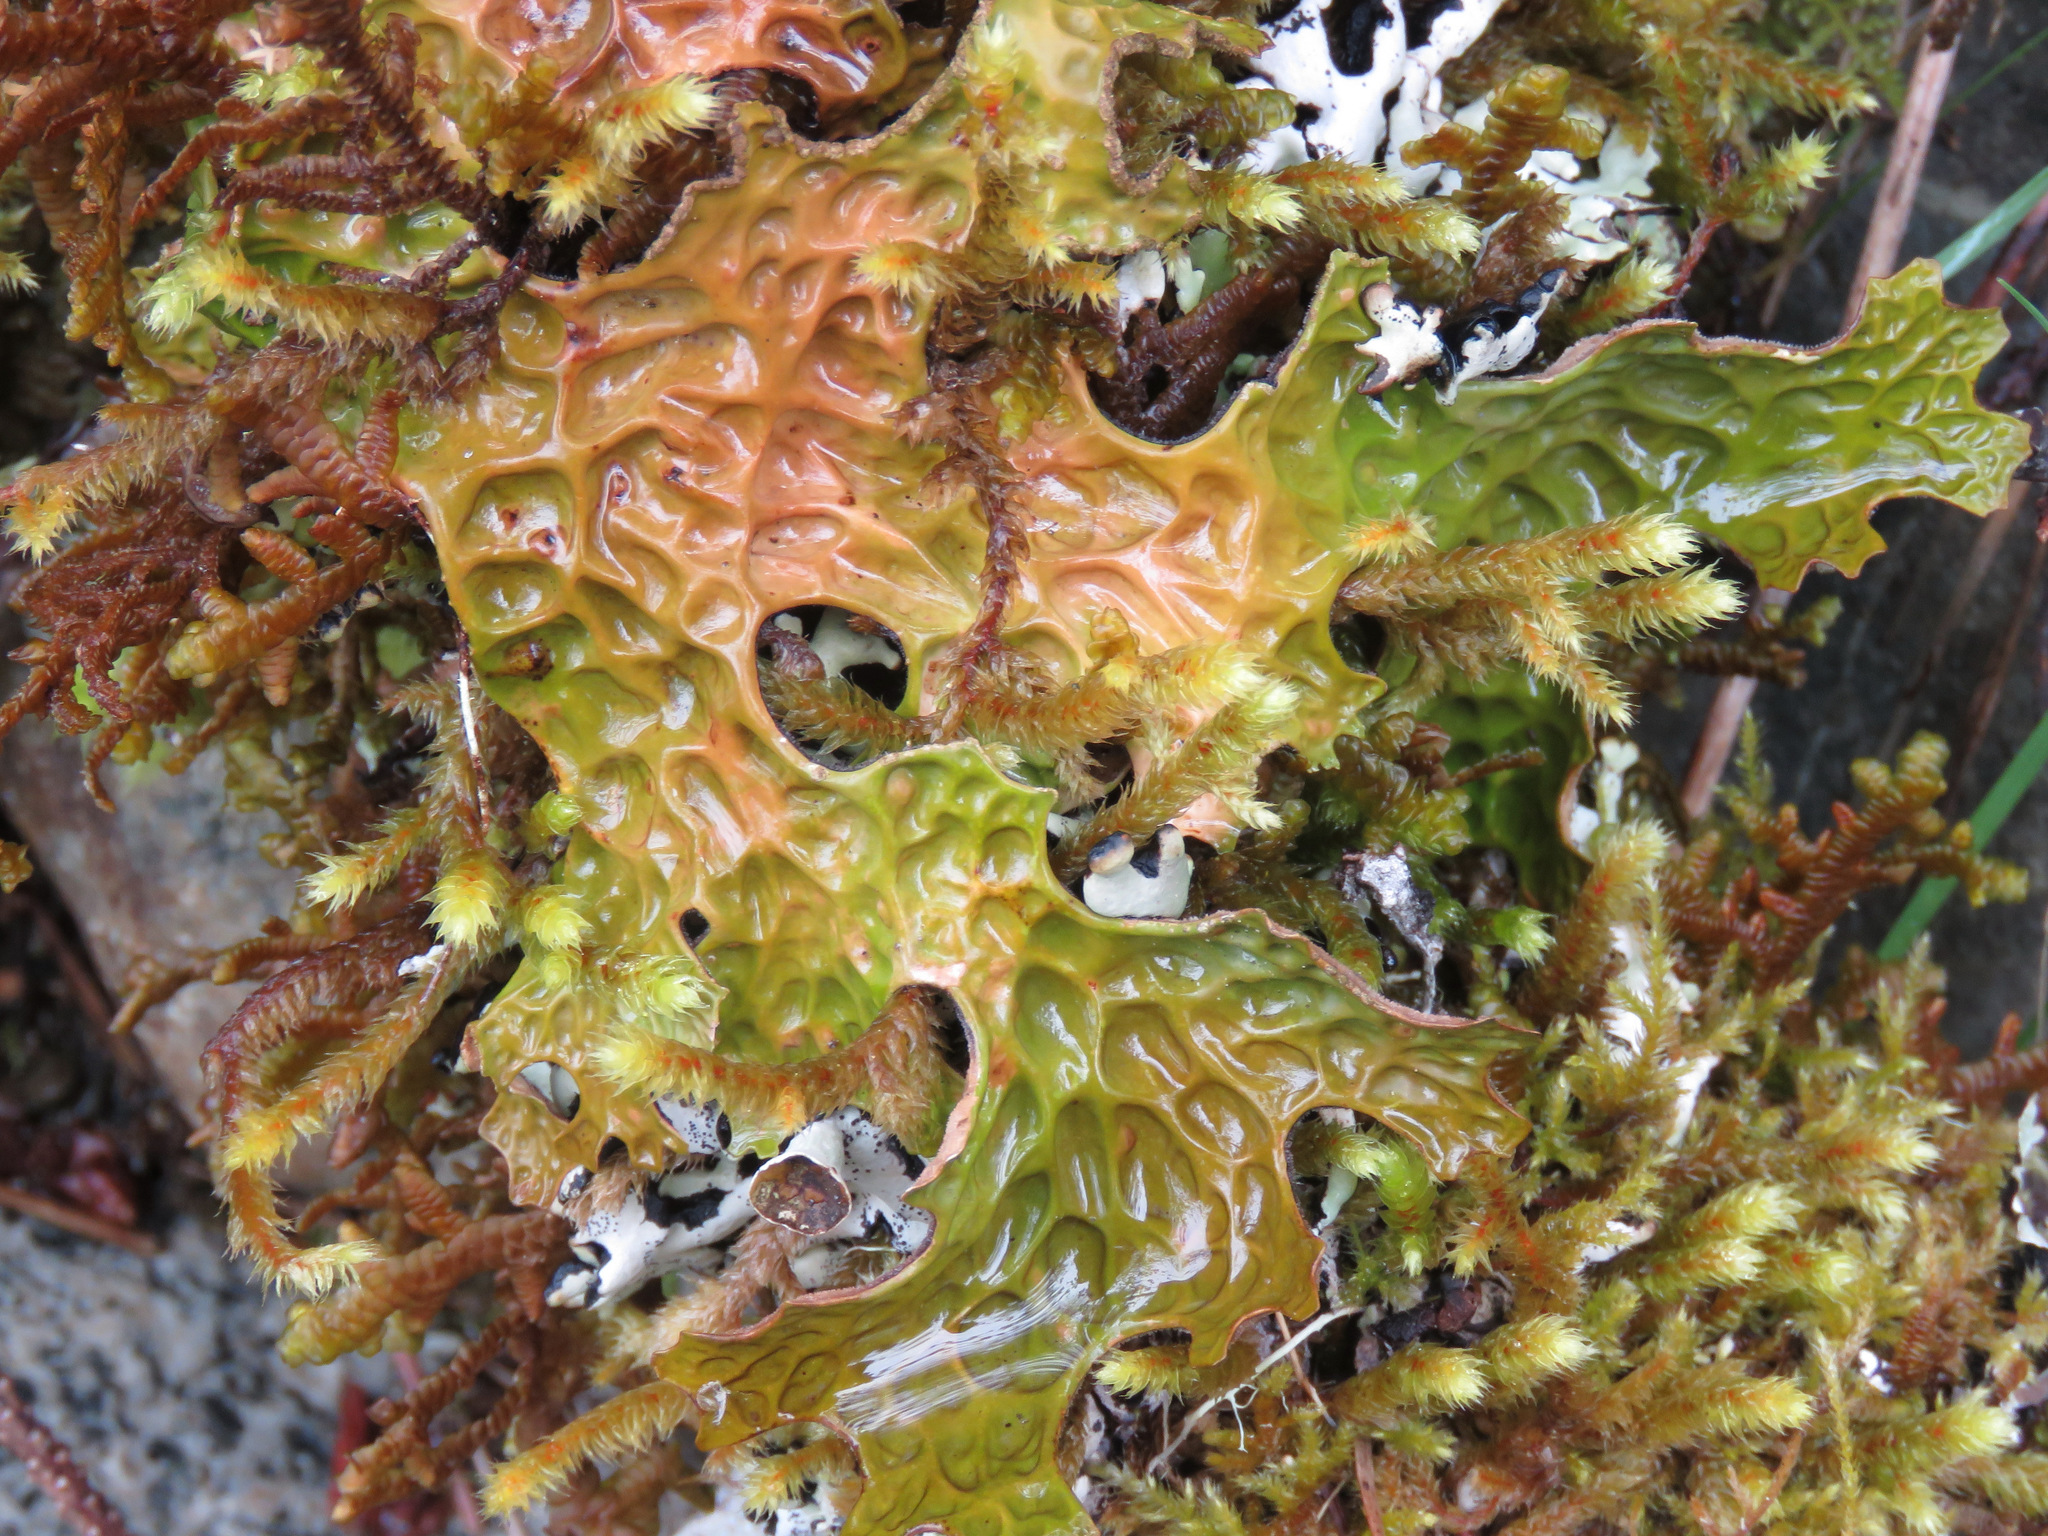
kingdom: Fungi
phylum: Ascomycota
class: Lecanoromycetes
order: Peltigerales
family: Lobariaceae
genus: Lobaria
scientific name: Lobaria pulmonaria
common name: Lungwort
